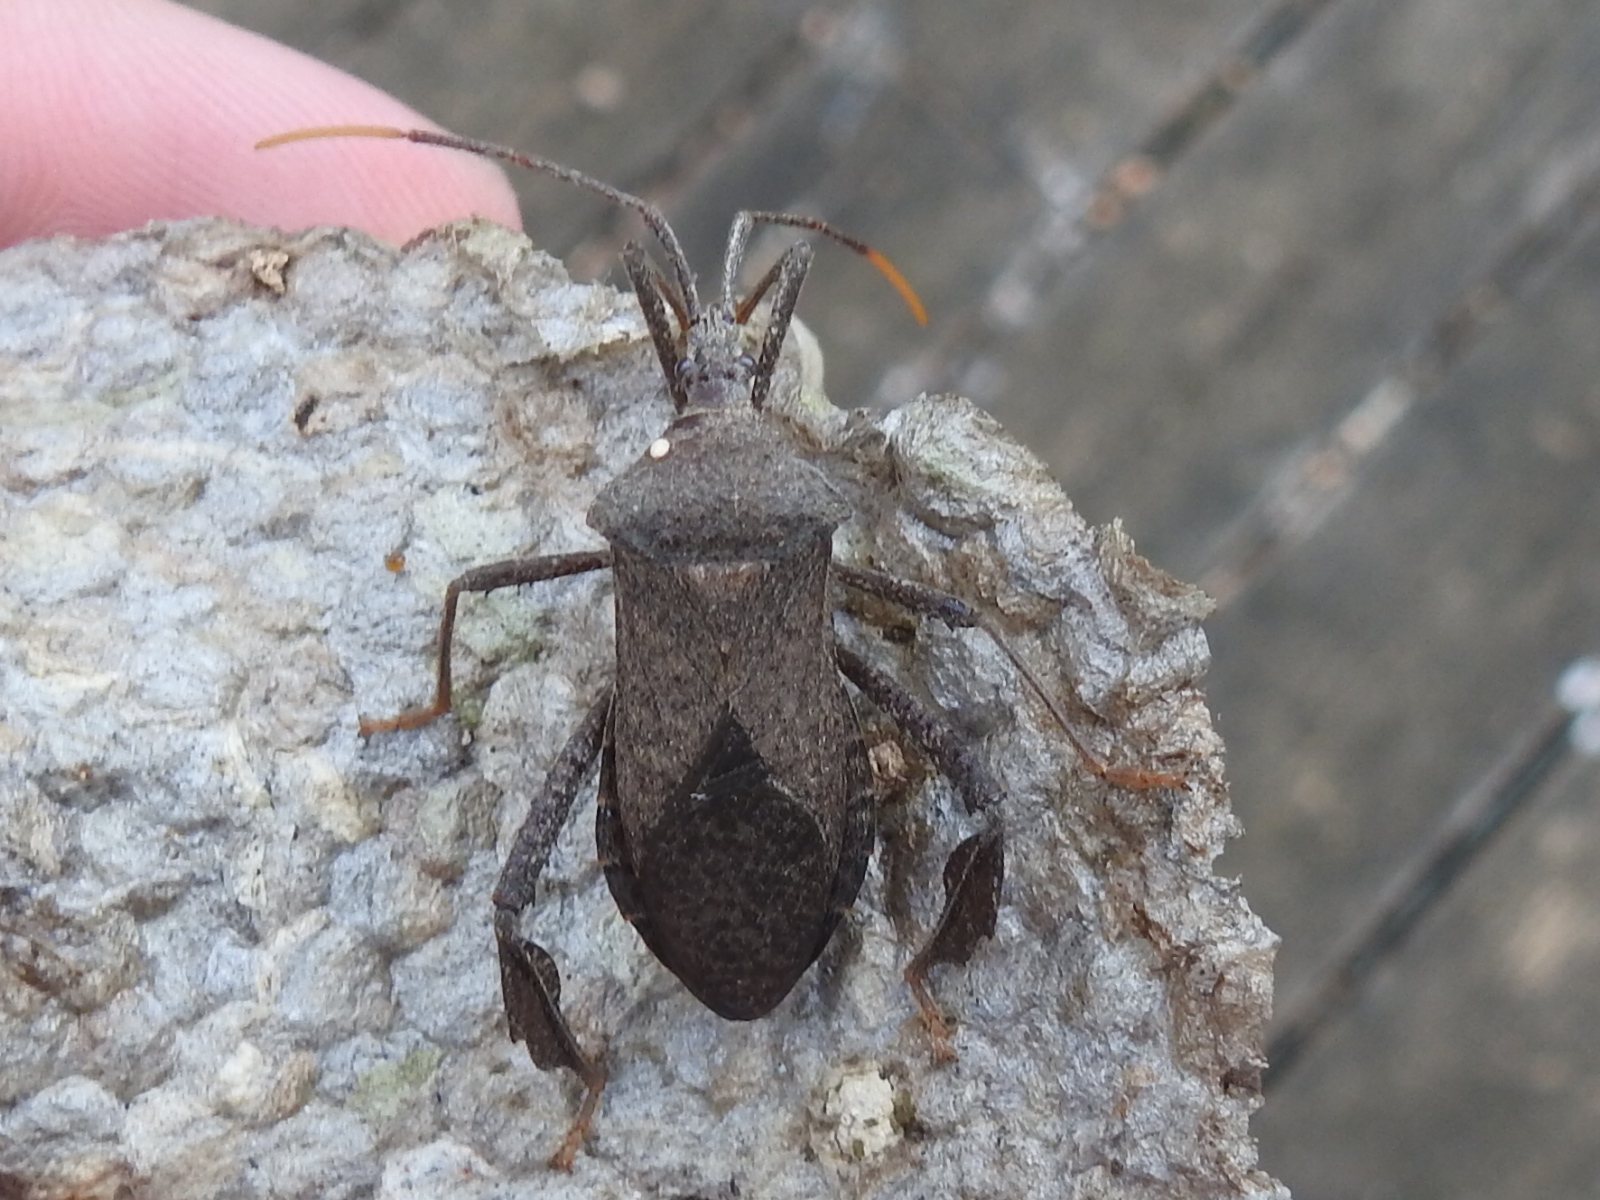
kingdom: Animalia
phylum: Arthropoda
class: Insecta
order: Hemiptera
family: Coreidae
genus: Acanthocephala
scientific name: Acanthocephala terminalis
